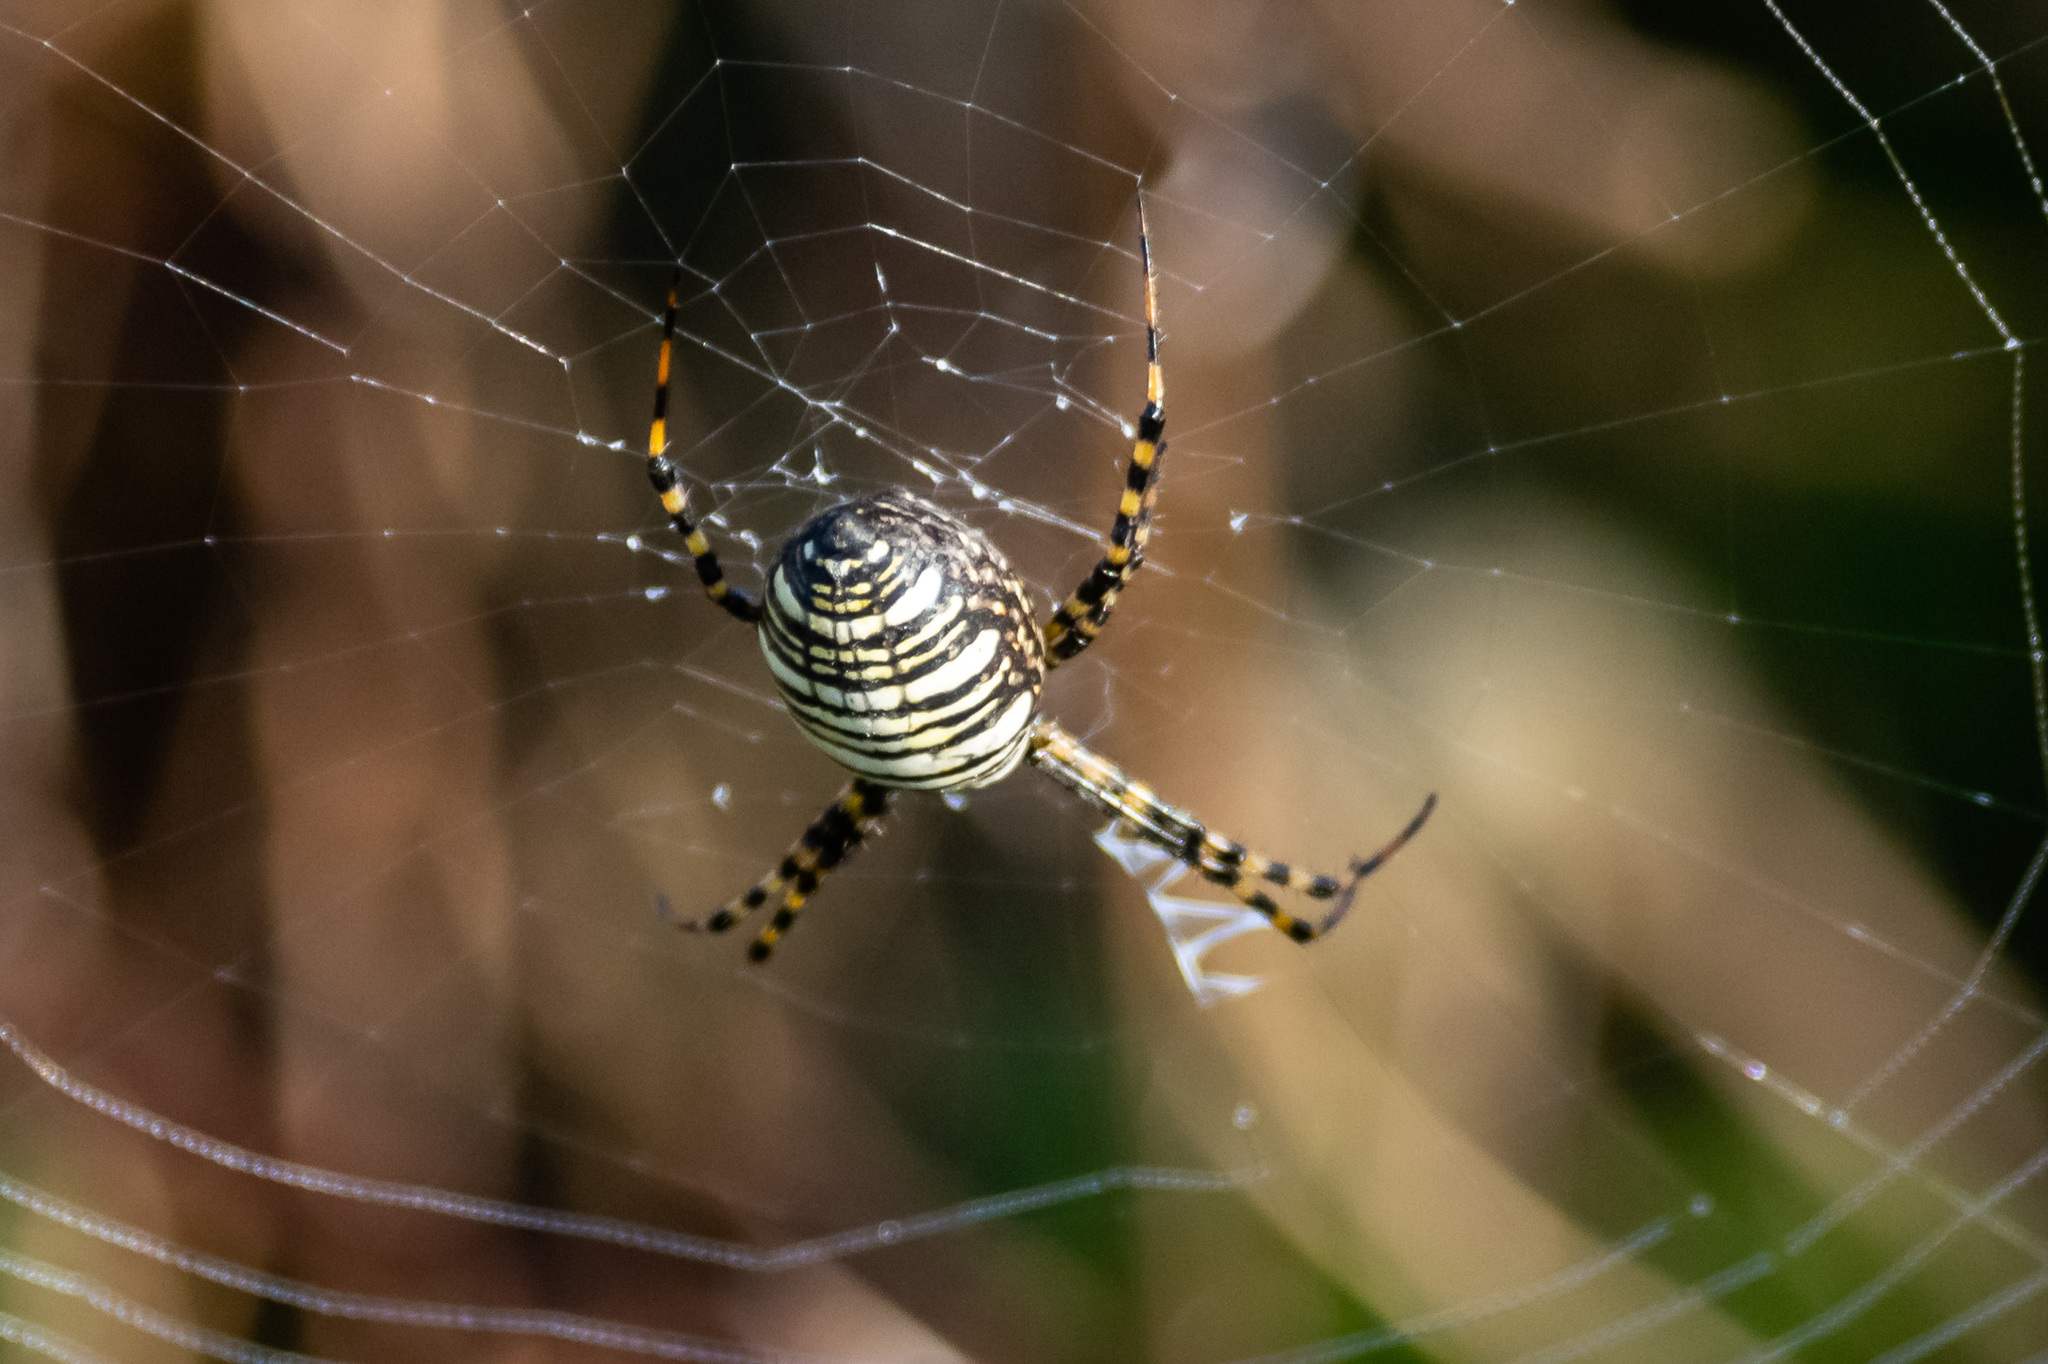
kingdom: Animalia
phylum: Arthropoda
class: Arachnida
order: Araneae
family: Araneidae
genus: Argiope
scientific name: Argiope trifasciata
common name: Banded garden spider
